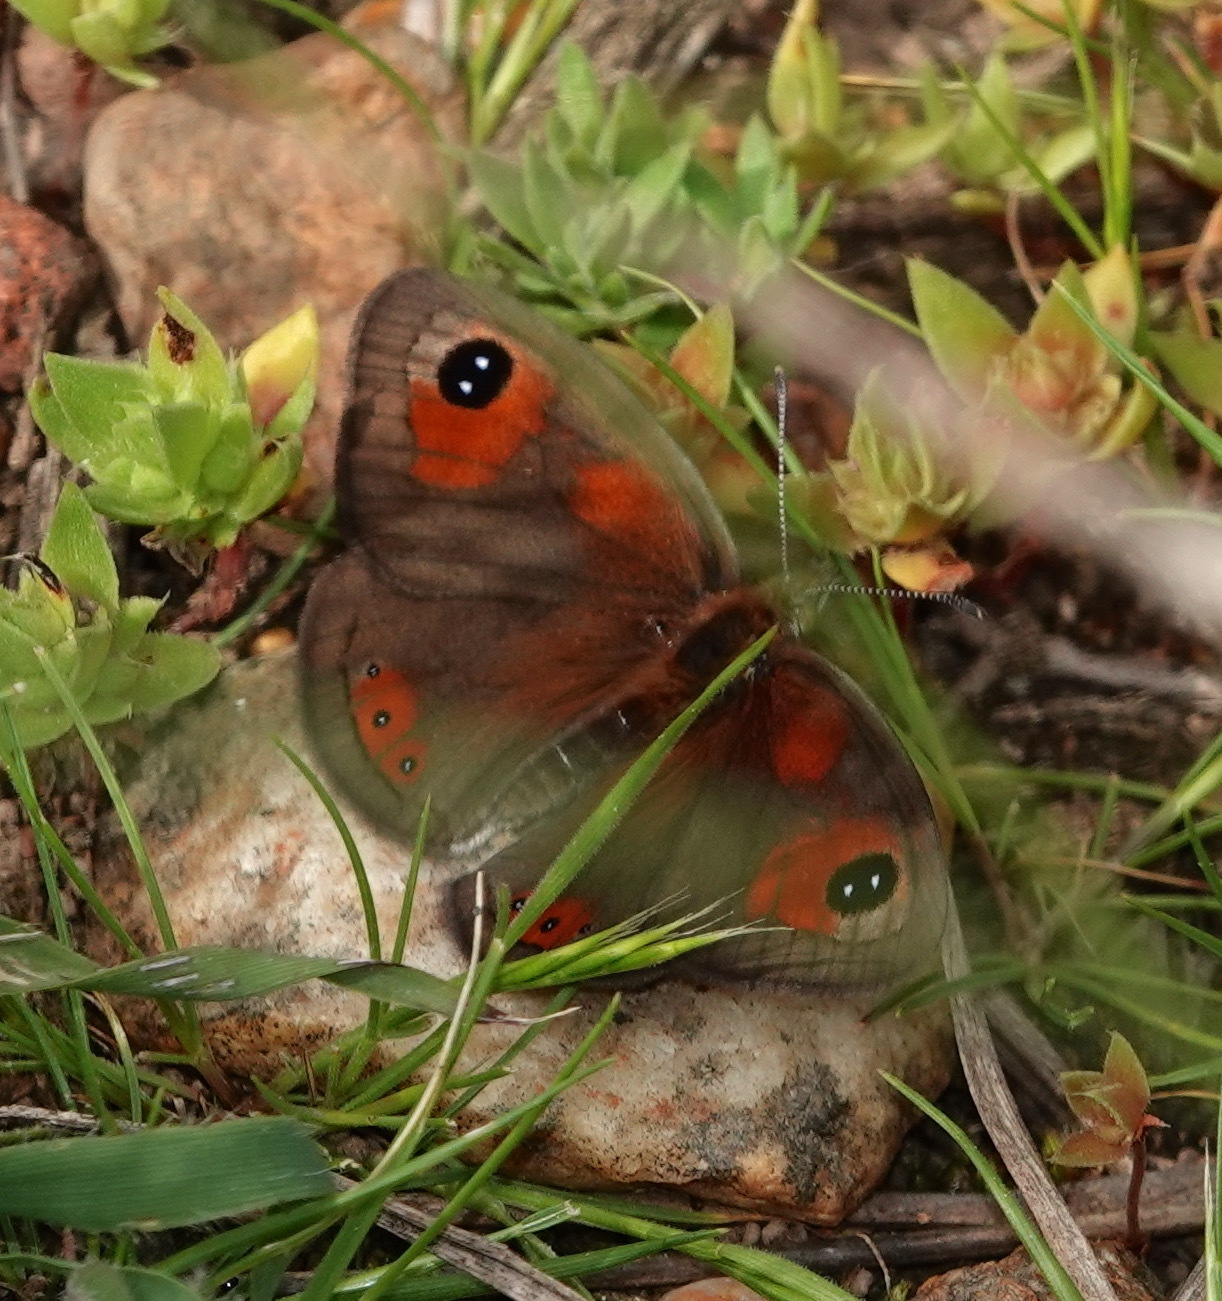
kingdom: Animalia
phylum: Arthropoda
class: Insecta
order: Lepidoptera
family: Nymphalidae
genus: Pseudonympha
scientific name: Pseudonympha trimenii
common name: Trimen’s brown
